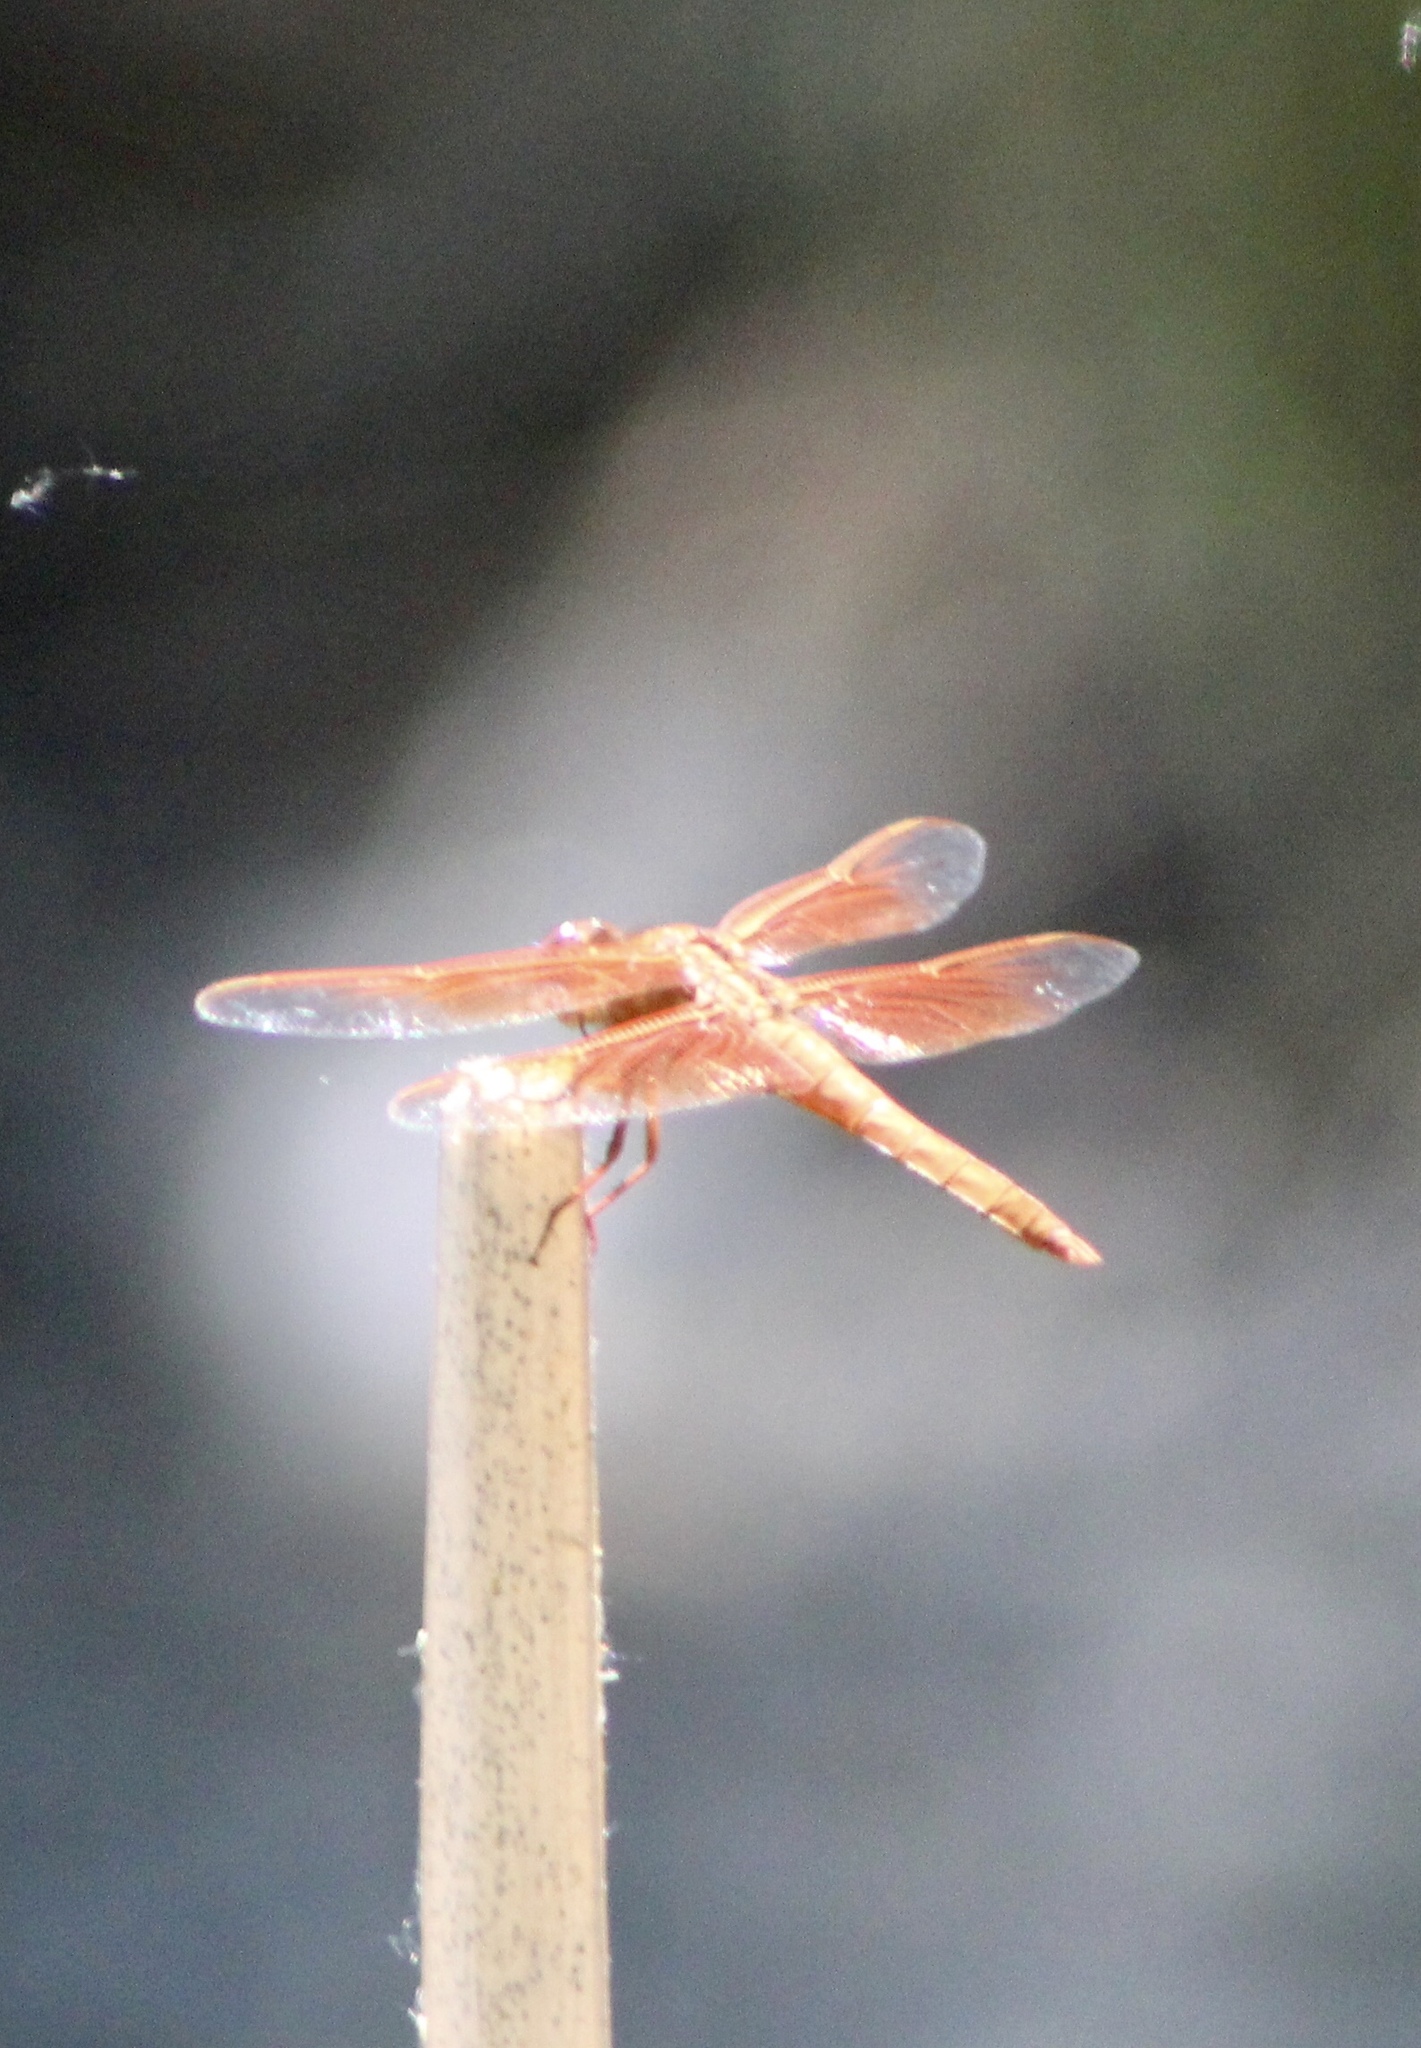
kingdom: Animalia
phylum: Arthropoda
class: Insecta
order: Odonata
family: Libellulidae
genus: Libellula
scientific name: Libellula saturata
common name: Flame skimmer
